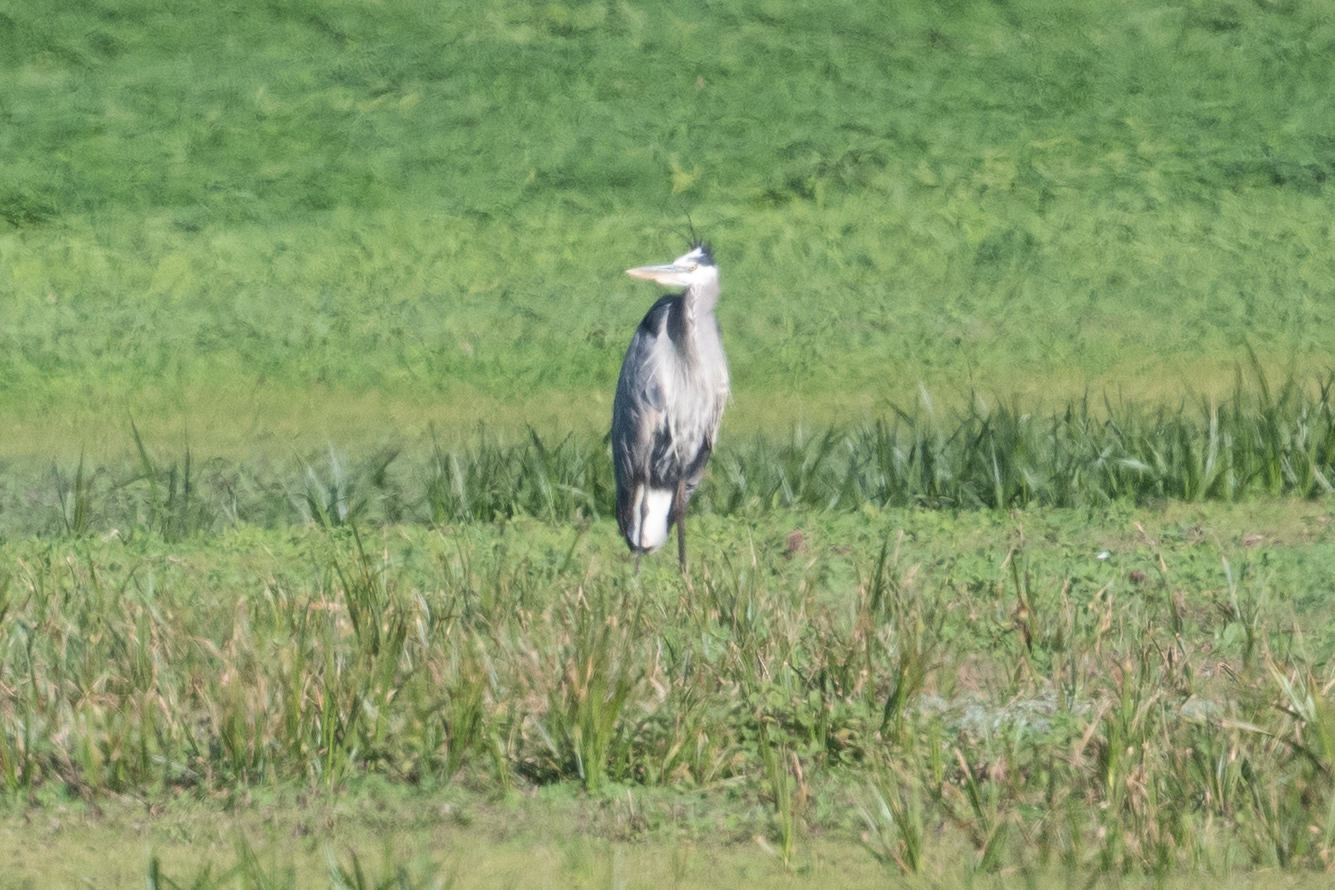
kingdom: Animalia
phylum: Chordata
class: Aves
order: Pelecaniformes
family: Ardeidae
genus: Ardea
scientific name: Ardea herodias
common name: Great blue heron
